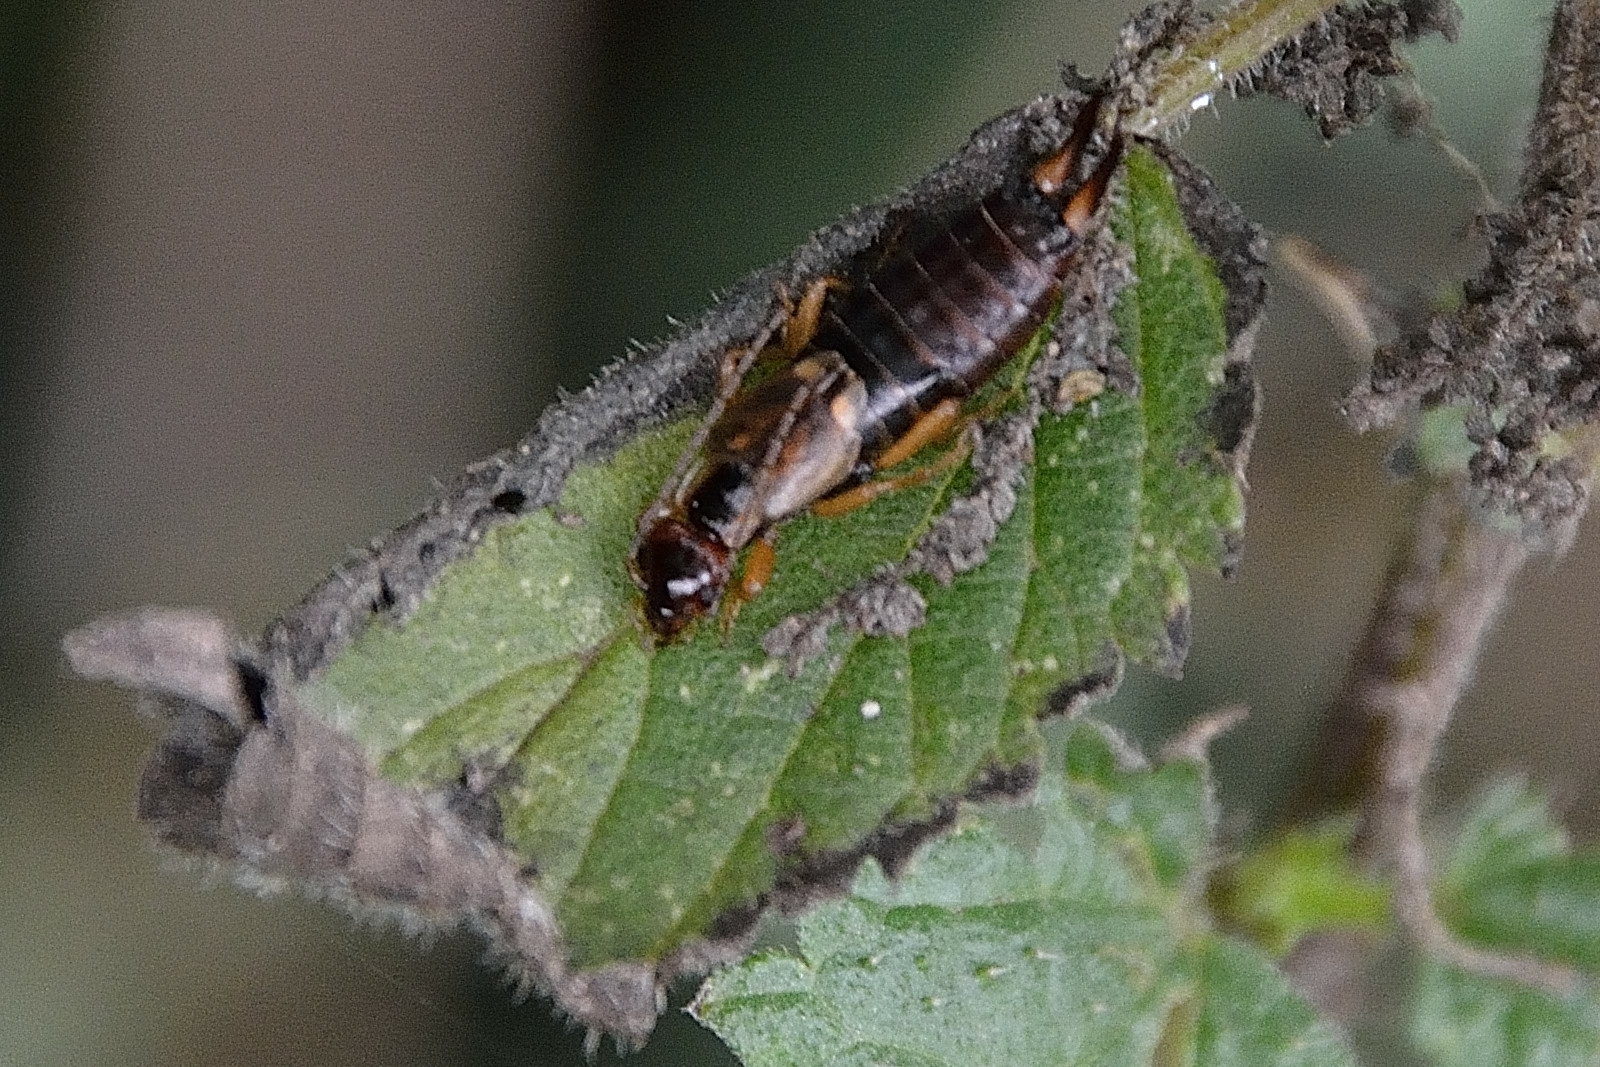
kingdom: Animalia
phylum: Arthropoda
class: Insecta
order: Dermaptera
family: Forficulidae
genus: Forficula
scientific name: Forficula
